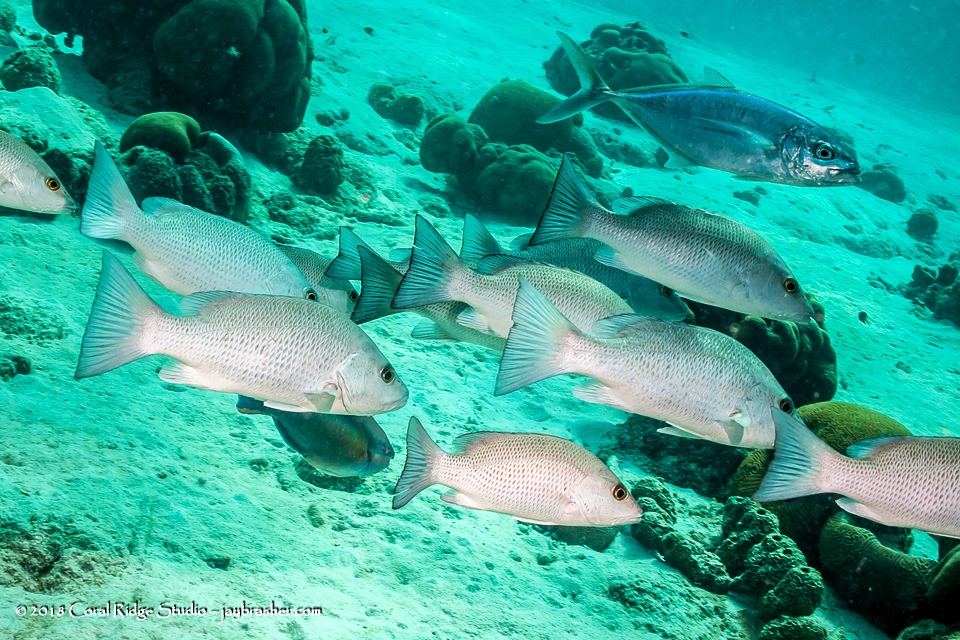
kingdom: Animalia
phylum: Chordata
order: Perciformes
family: Lutjanidae
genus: Lutjanus
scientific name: Lutjanus griseus
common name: Gray snapper
